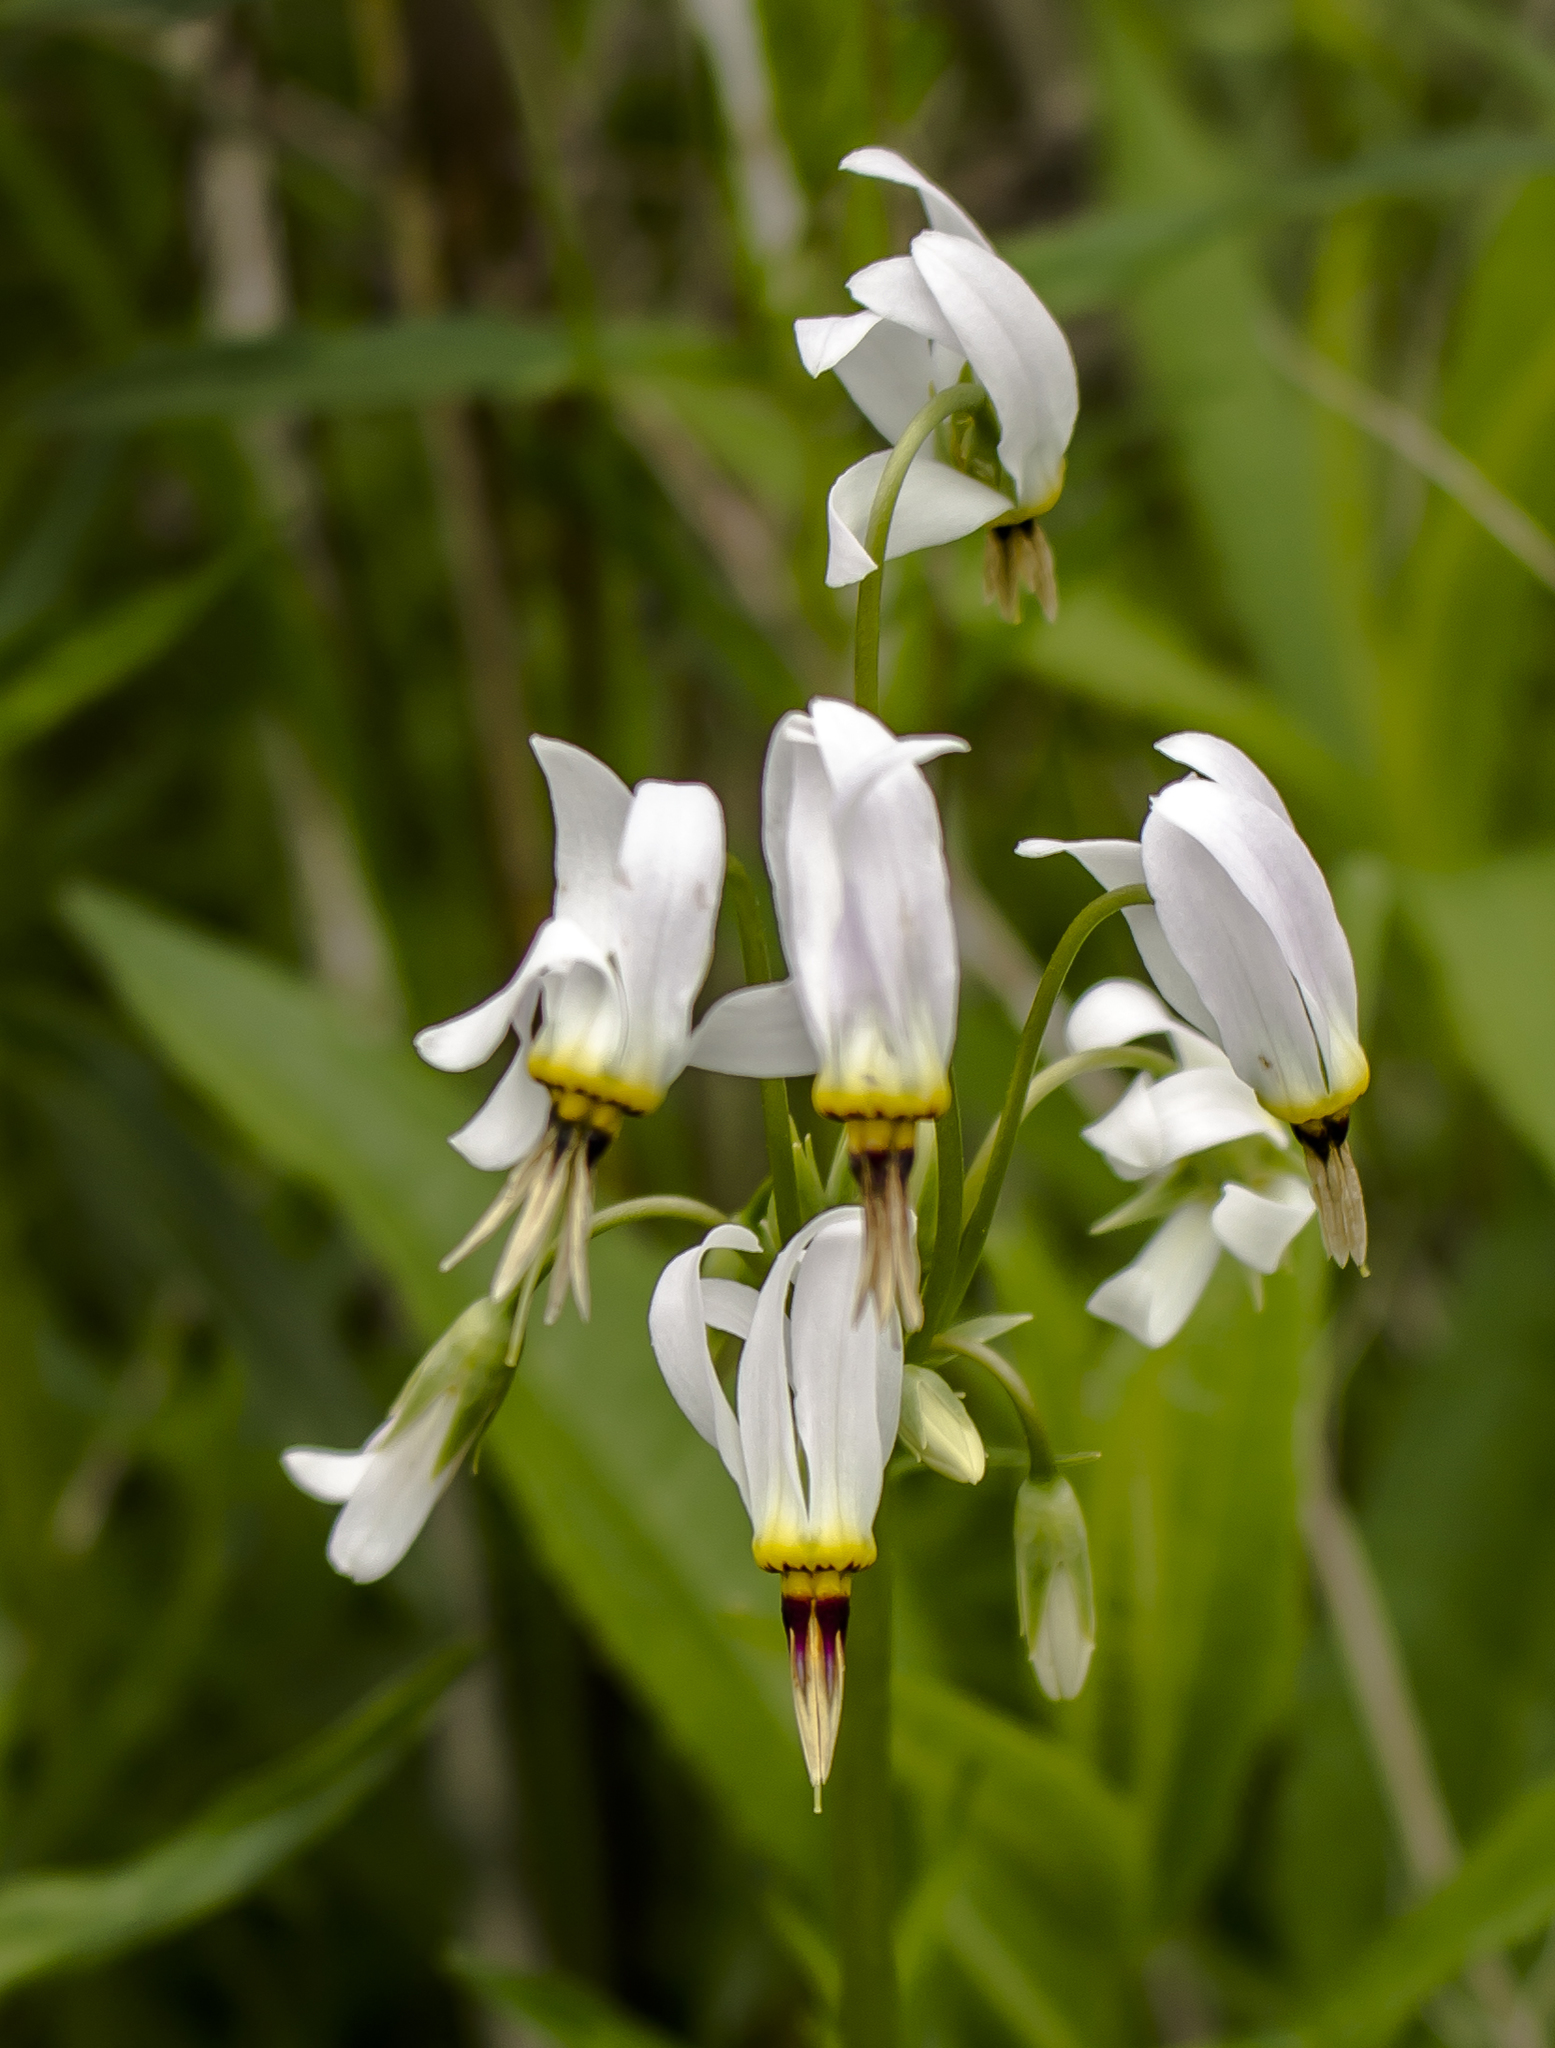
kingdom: Plantae
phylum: Tracheophyta
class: Magnoliopsida
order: Ericales
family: Primulaceae
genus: Dodecatheon
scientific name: Dodecatheon meadia
